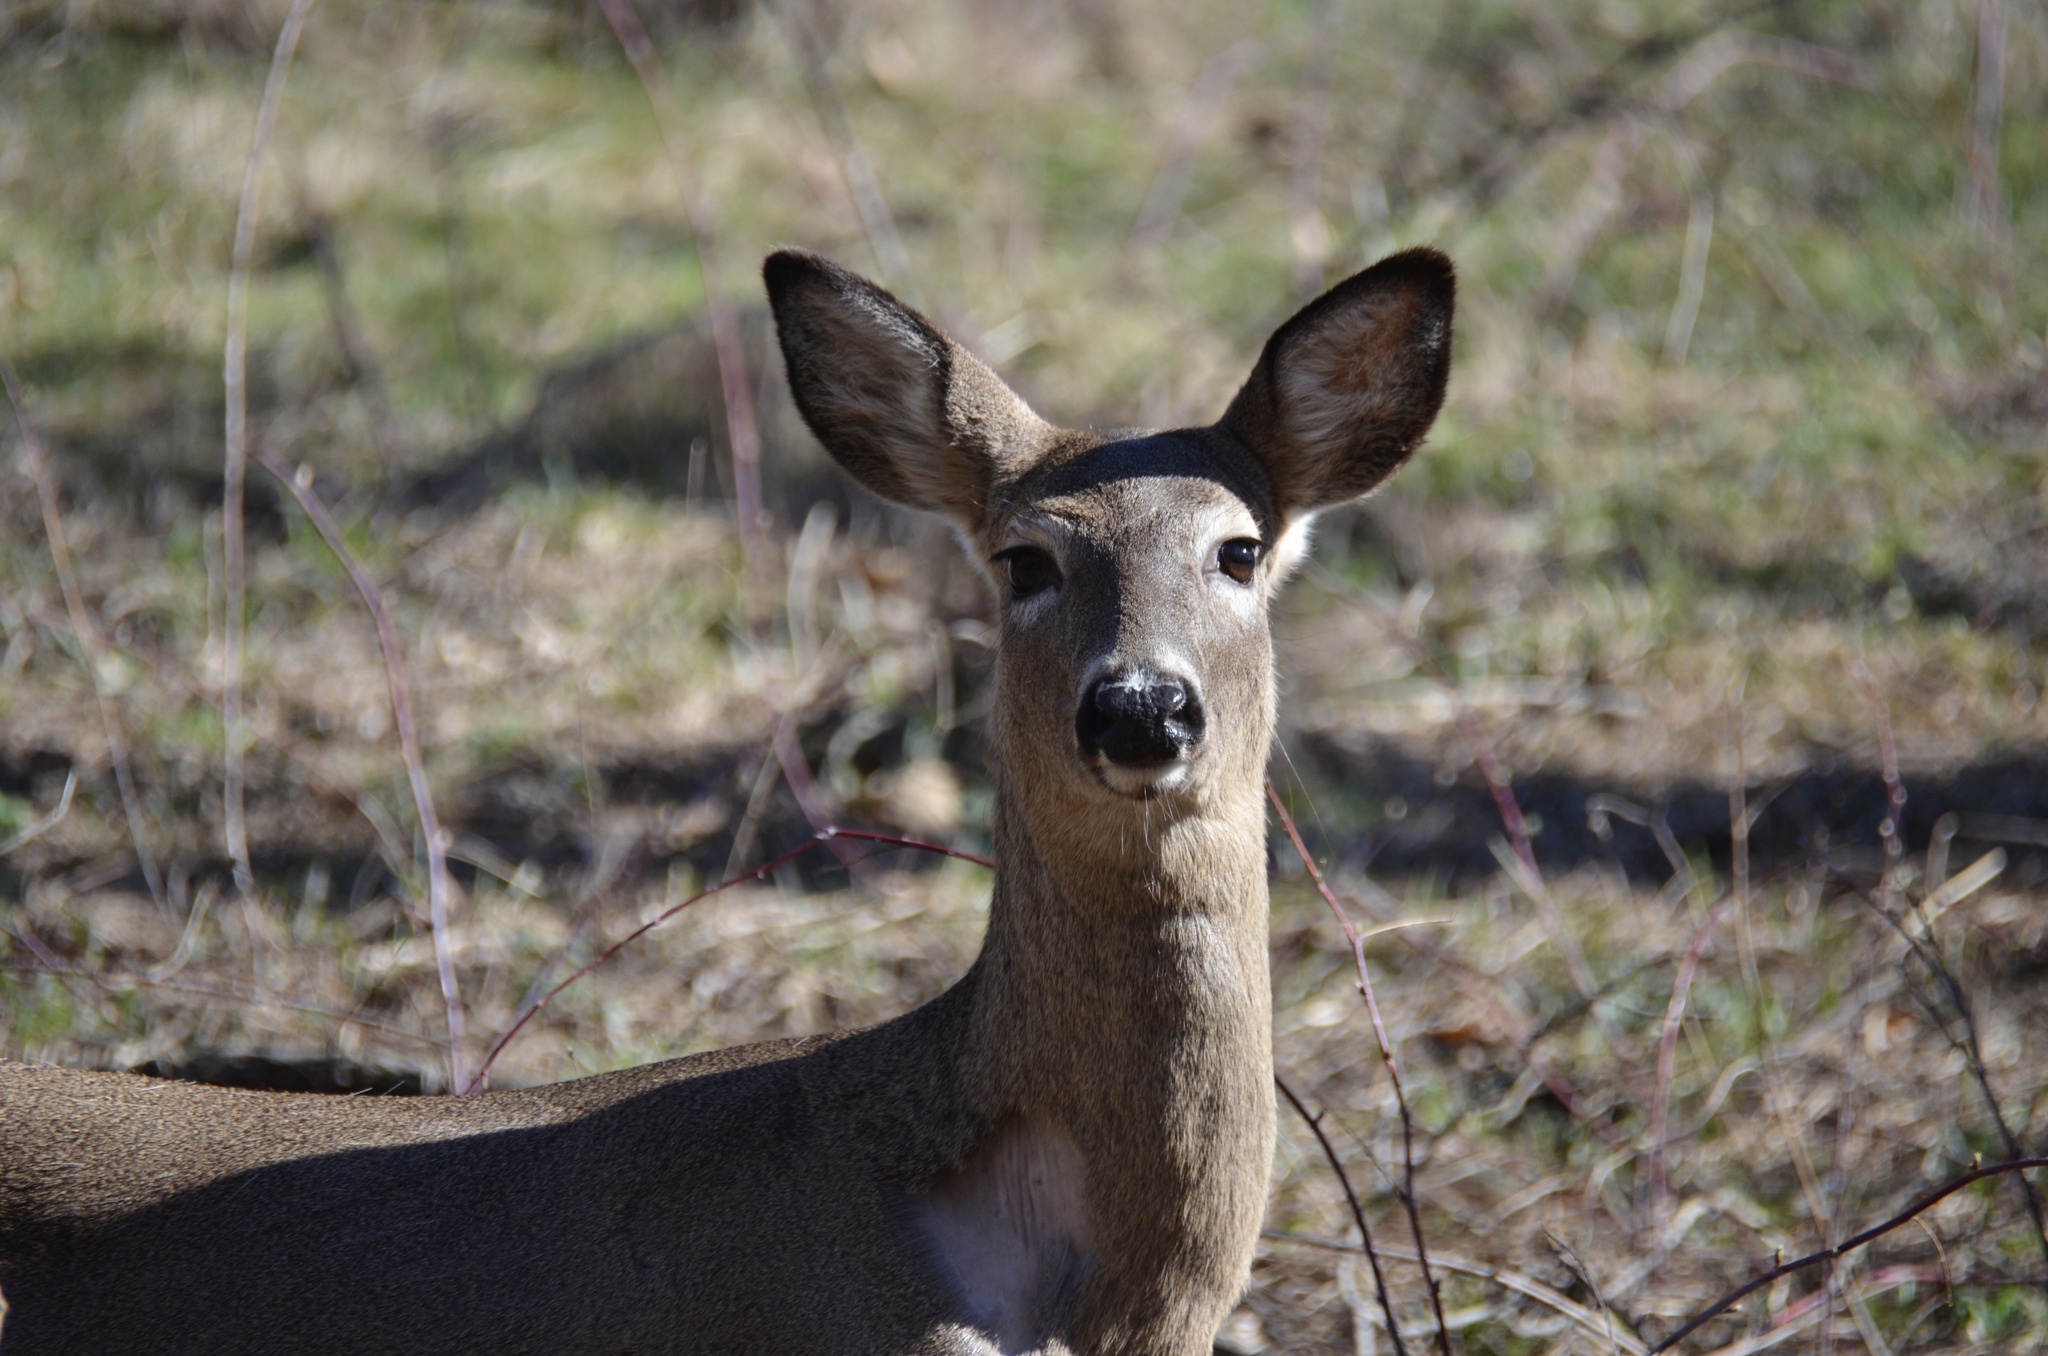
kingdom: Animalia
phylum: Chordata
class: Mammalia
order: Artiodactyla
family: Cervidae
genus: Odocoileus
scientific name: Odocoileus virginianus
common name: White-tailed deer
